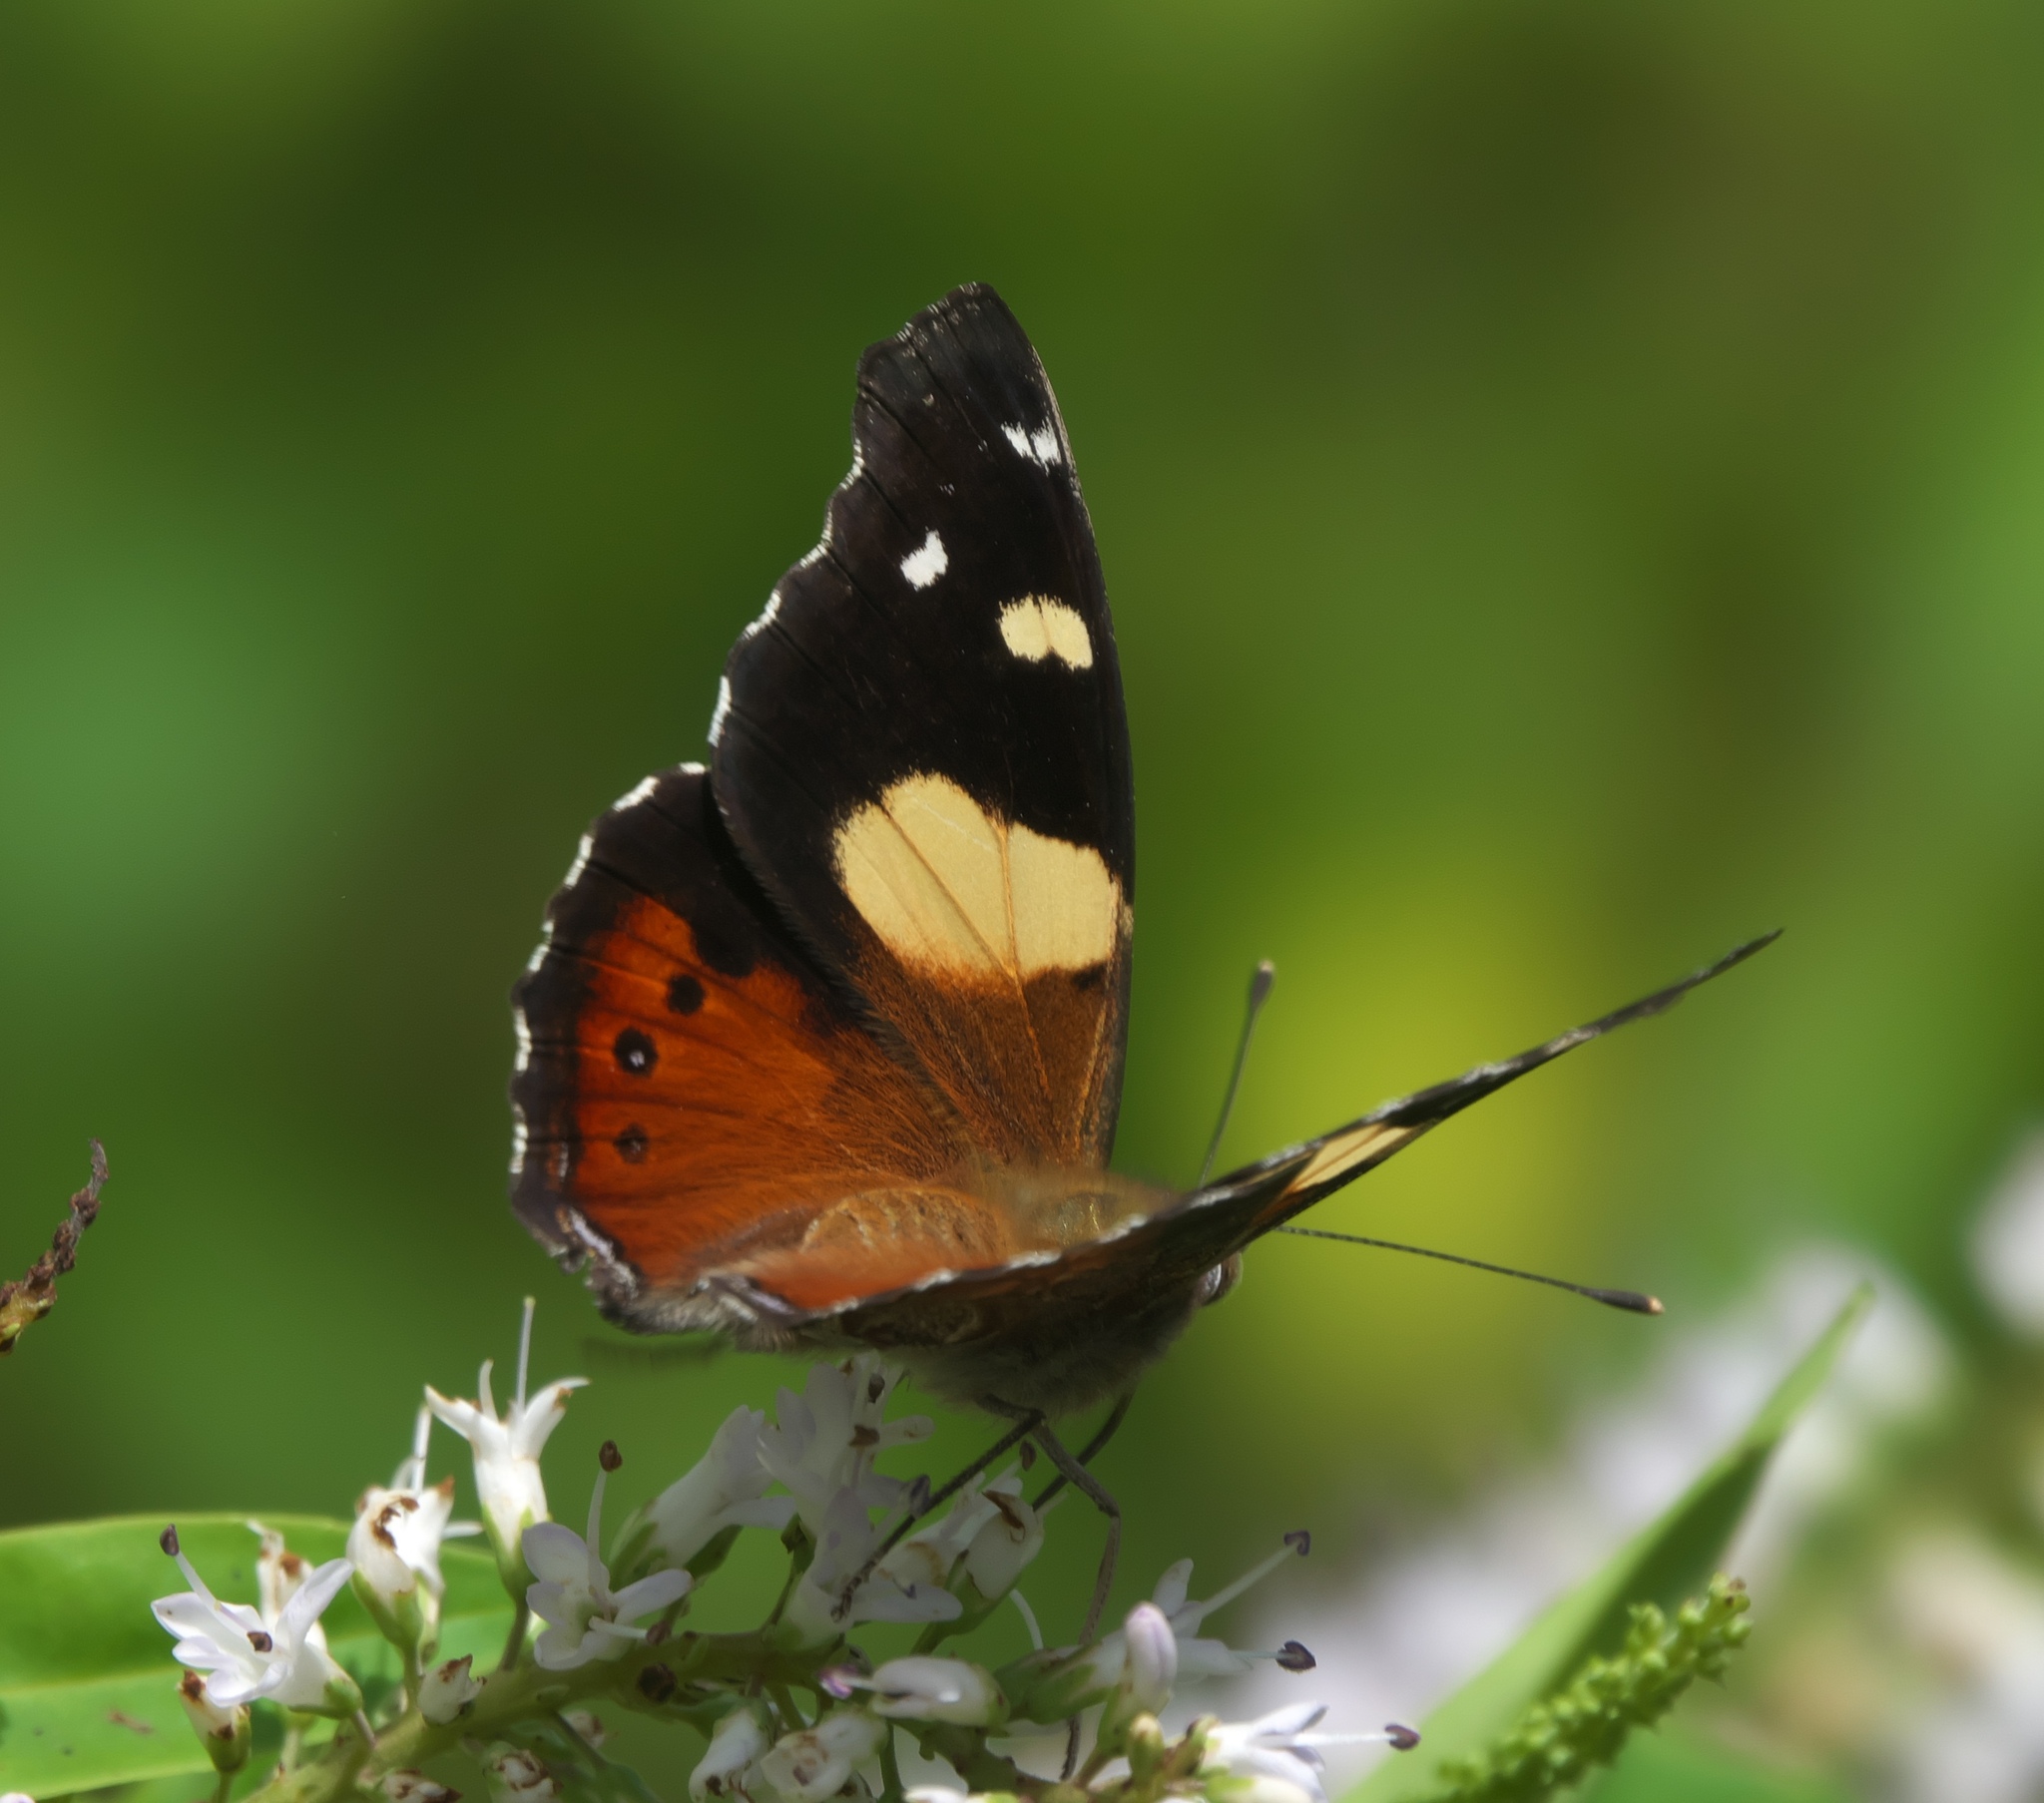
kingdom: Animalia
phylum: Arthropoda
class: Insecta
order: Lepidoptera
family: Nymphalidae
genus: Vanessa
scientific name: Vanessa itea
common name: Yellow admiral
